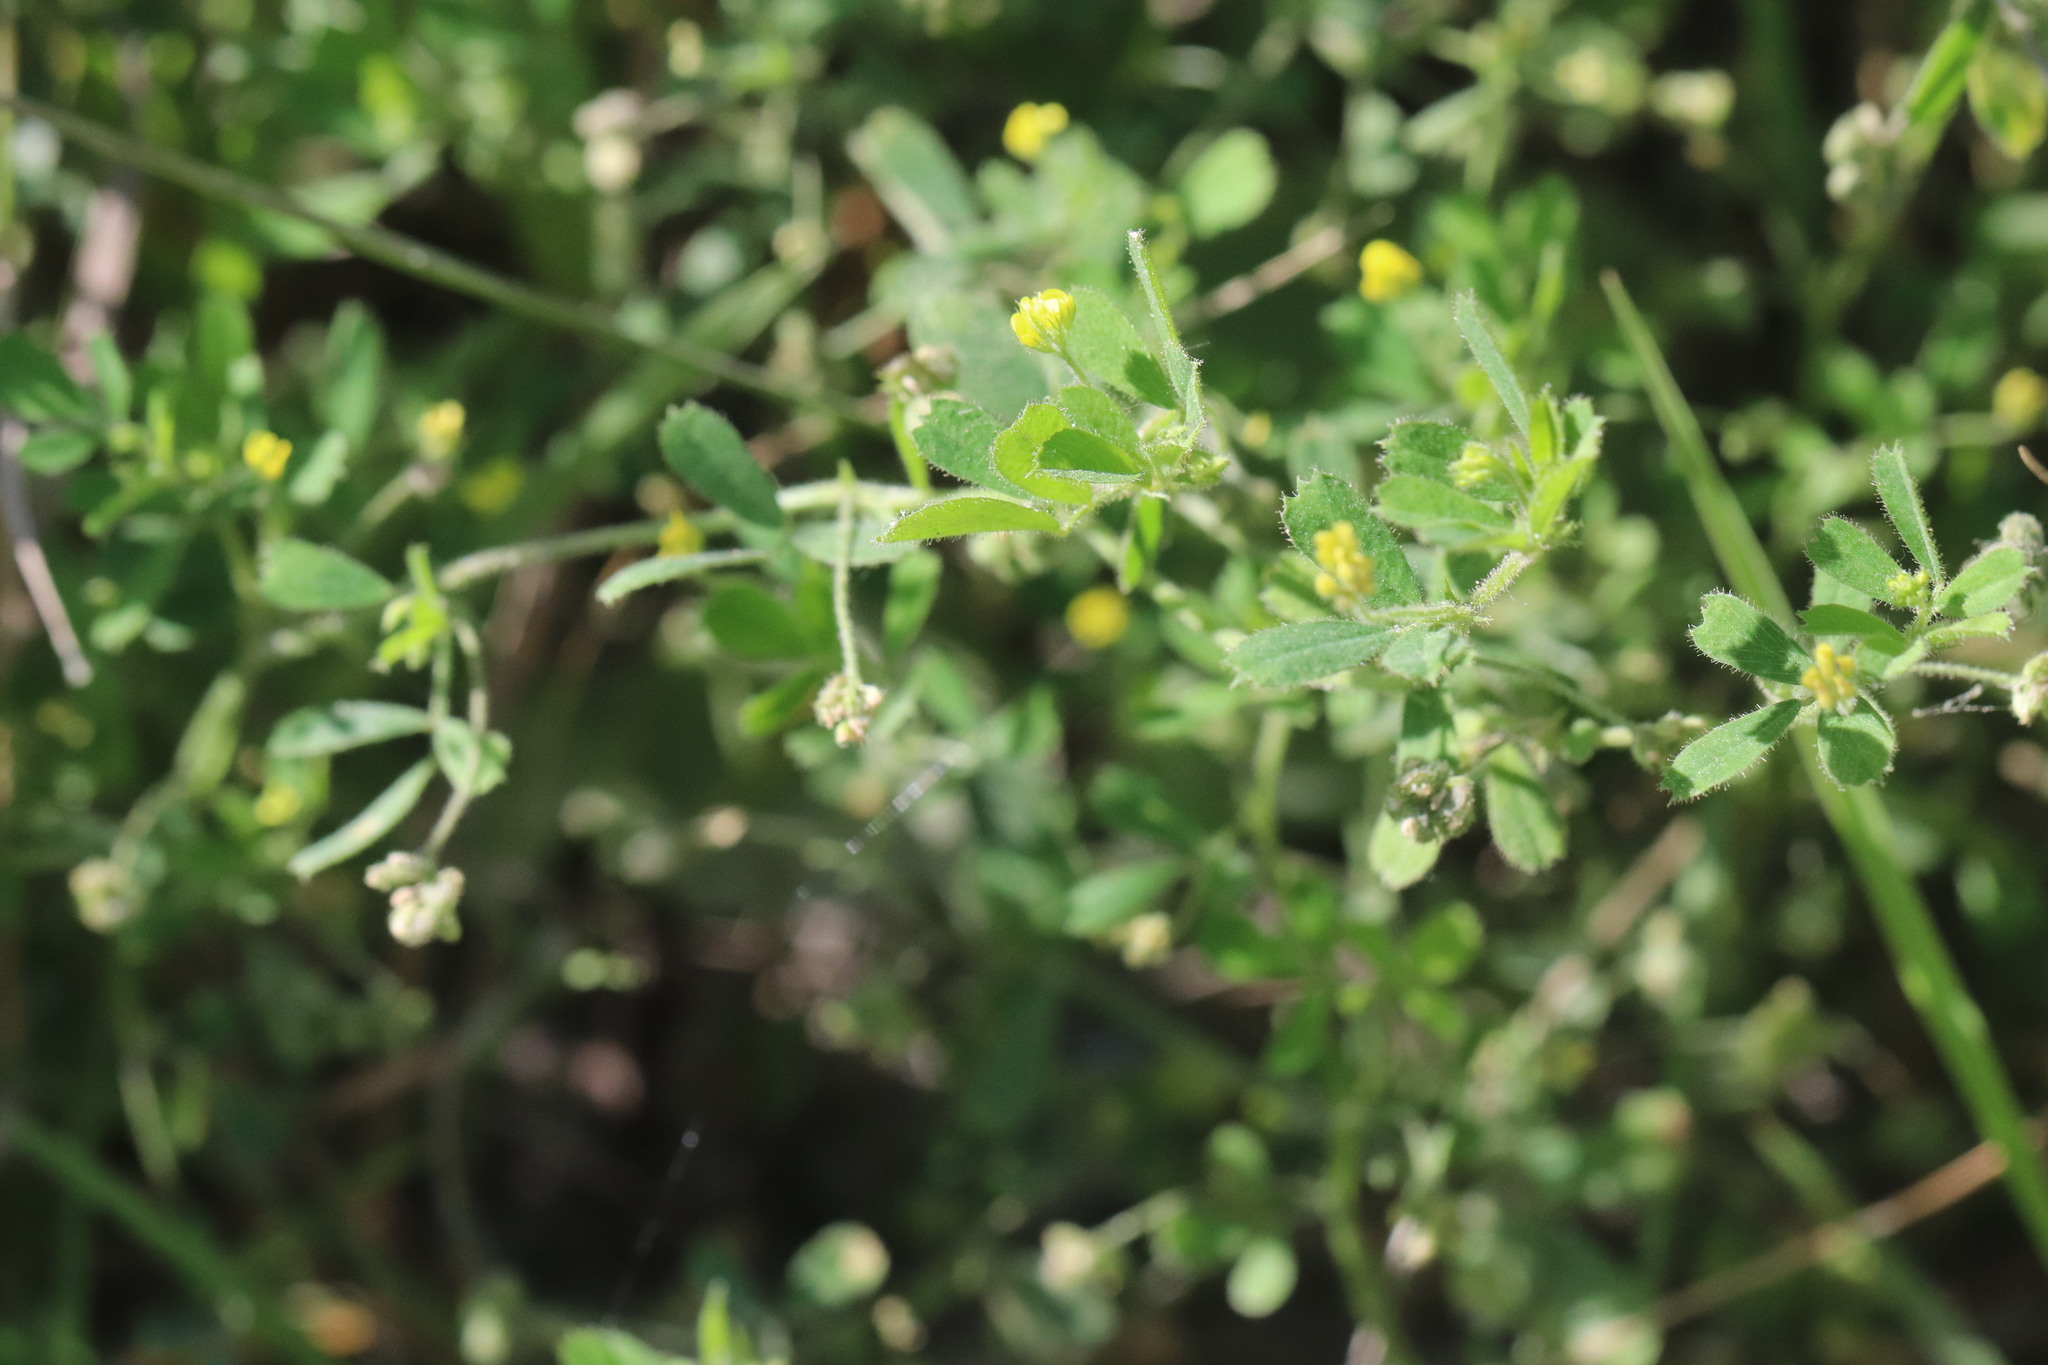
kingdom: Plantae
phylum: Tracheophyta
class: Magnoliopsida
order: Fabales
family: Fabaceae
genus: Medicago
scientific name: Medicago lupulina
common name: Black medick
